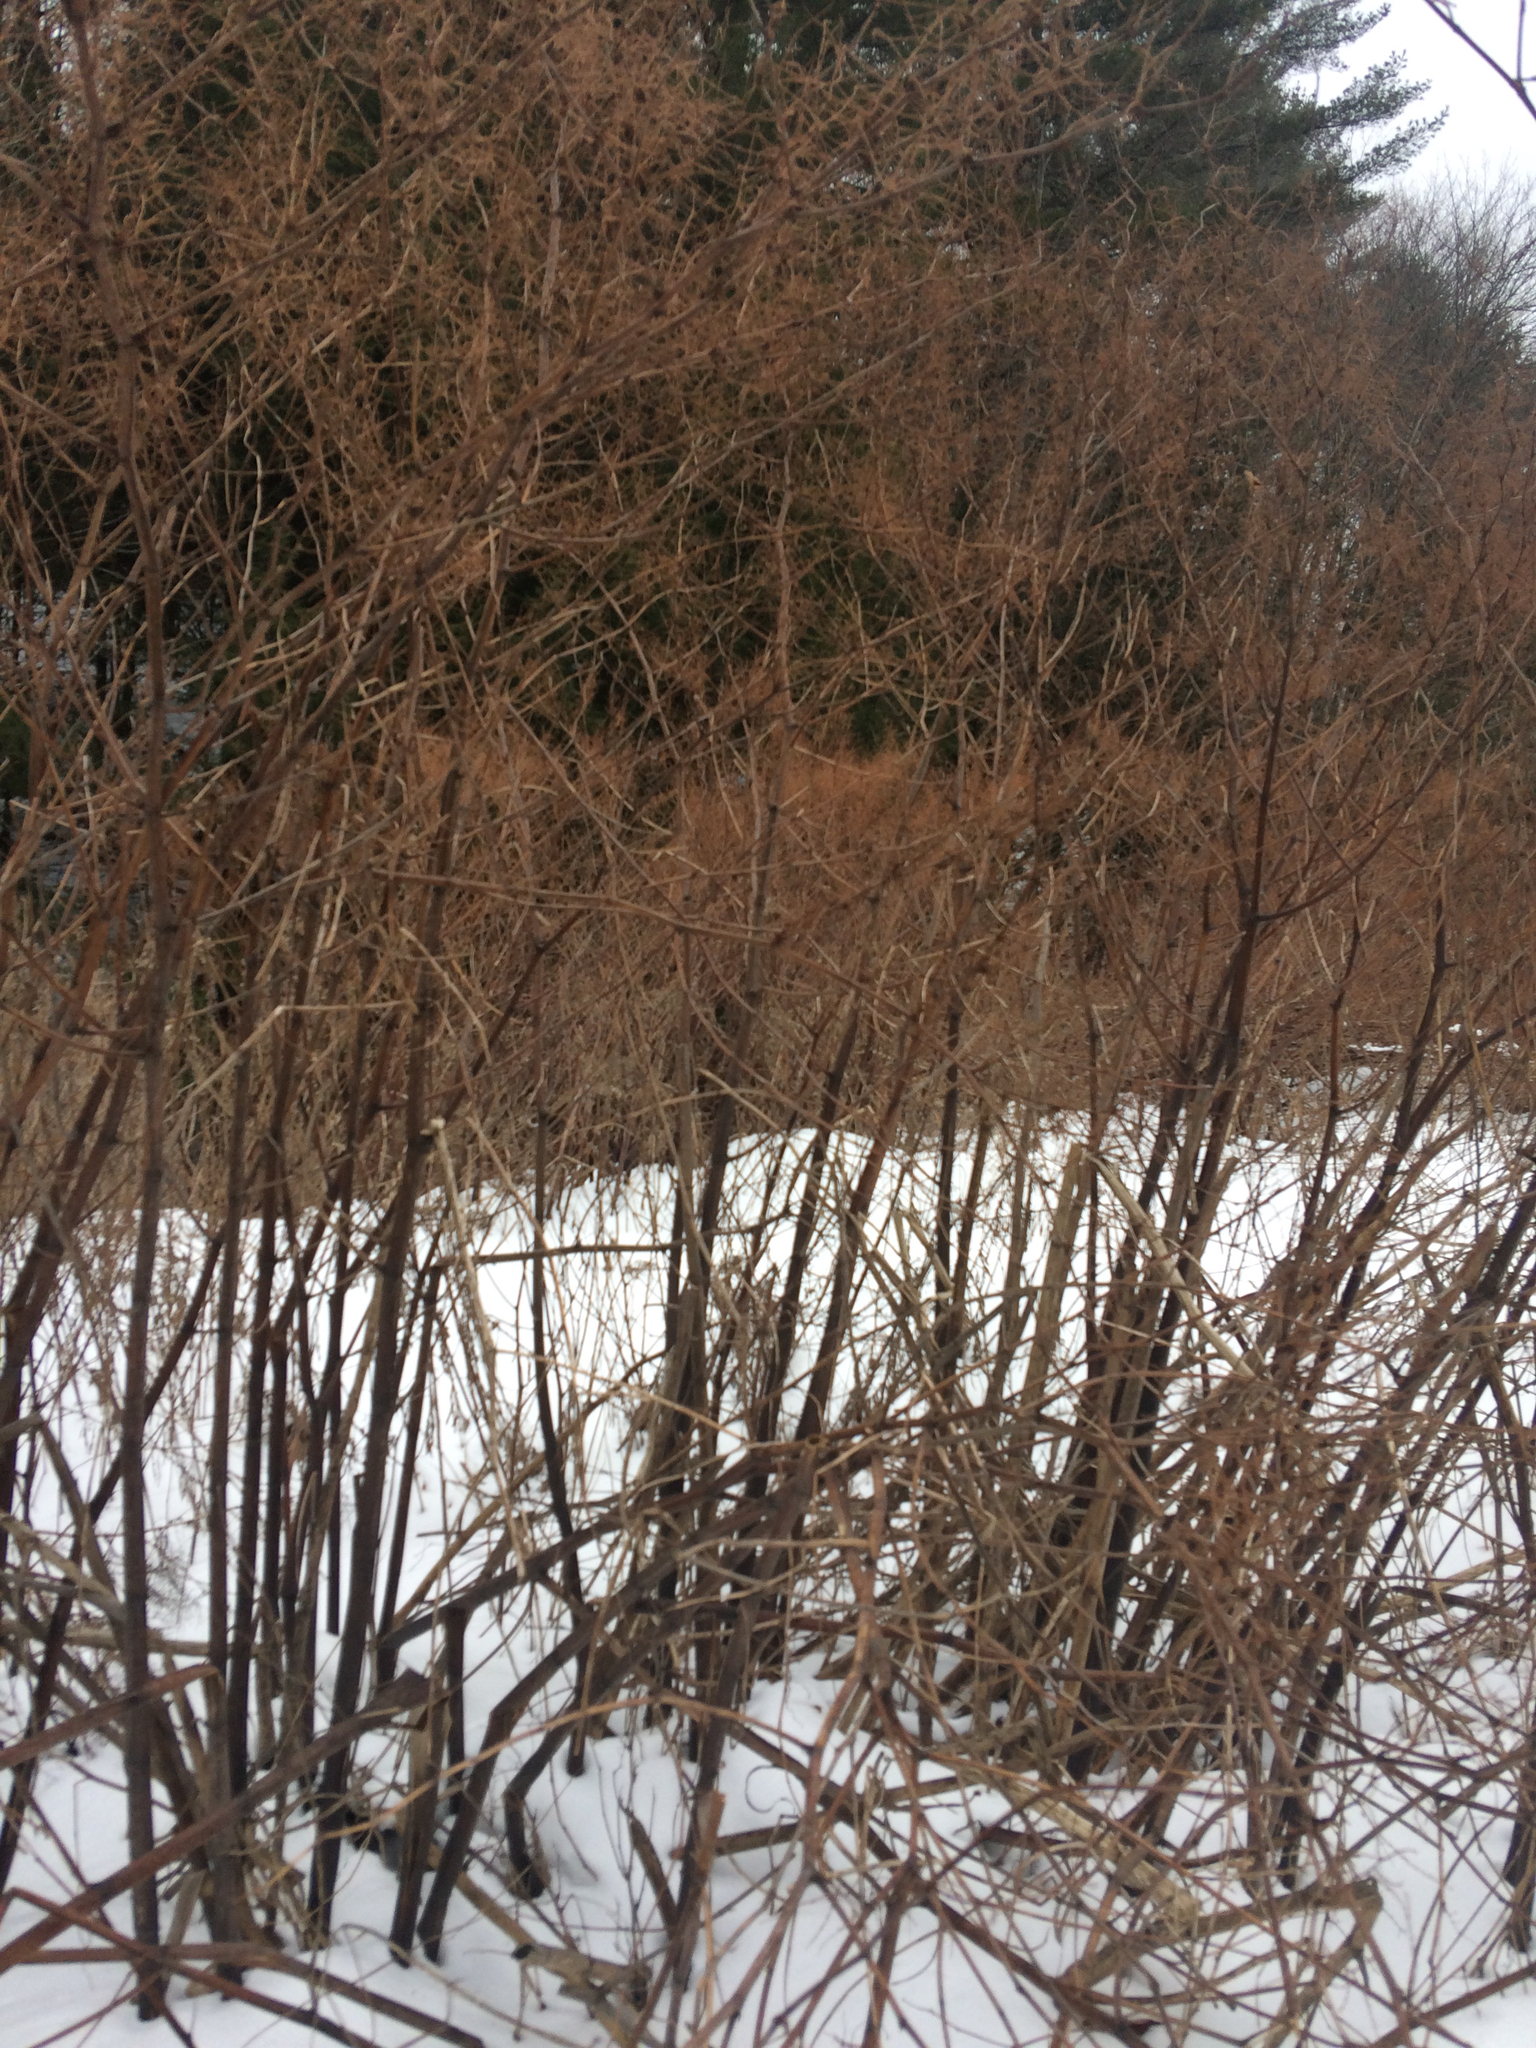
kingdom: Plantae
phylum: Tracheophyta
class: Magnoliopsida
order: Caryophyllales
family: Polygonaceae
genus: Reynoutria
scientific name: Reynoutria japonica
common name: Japanese knotweed
